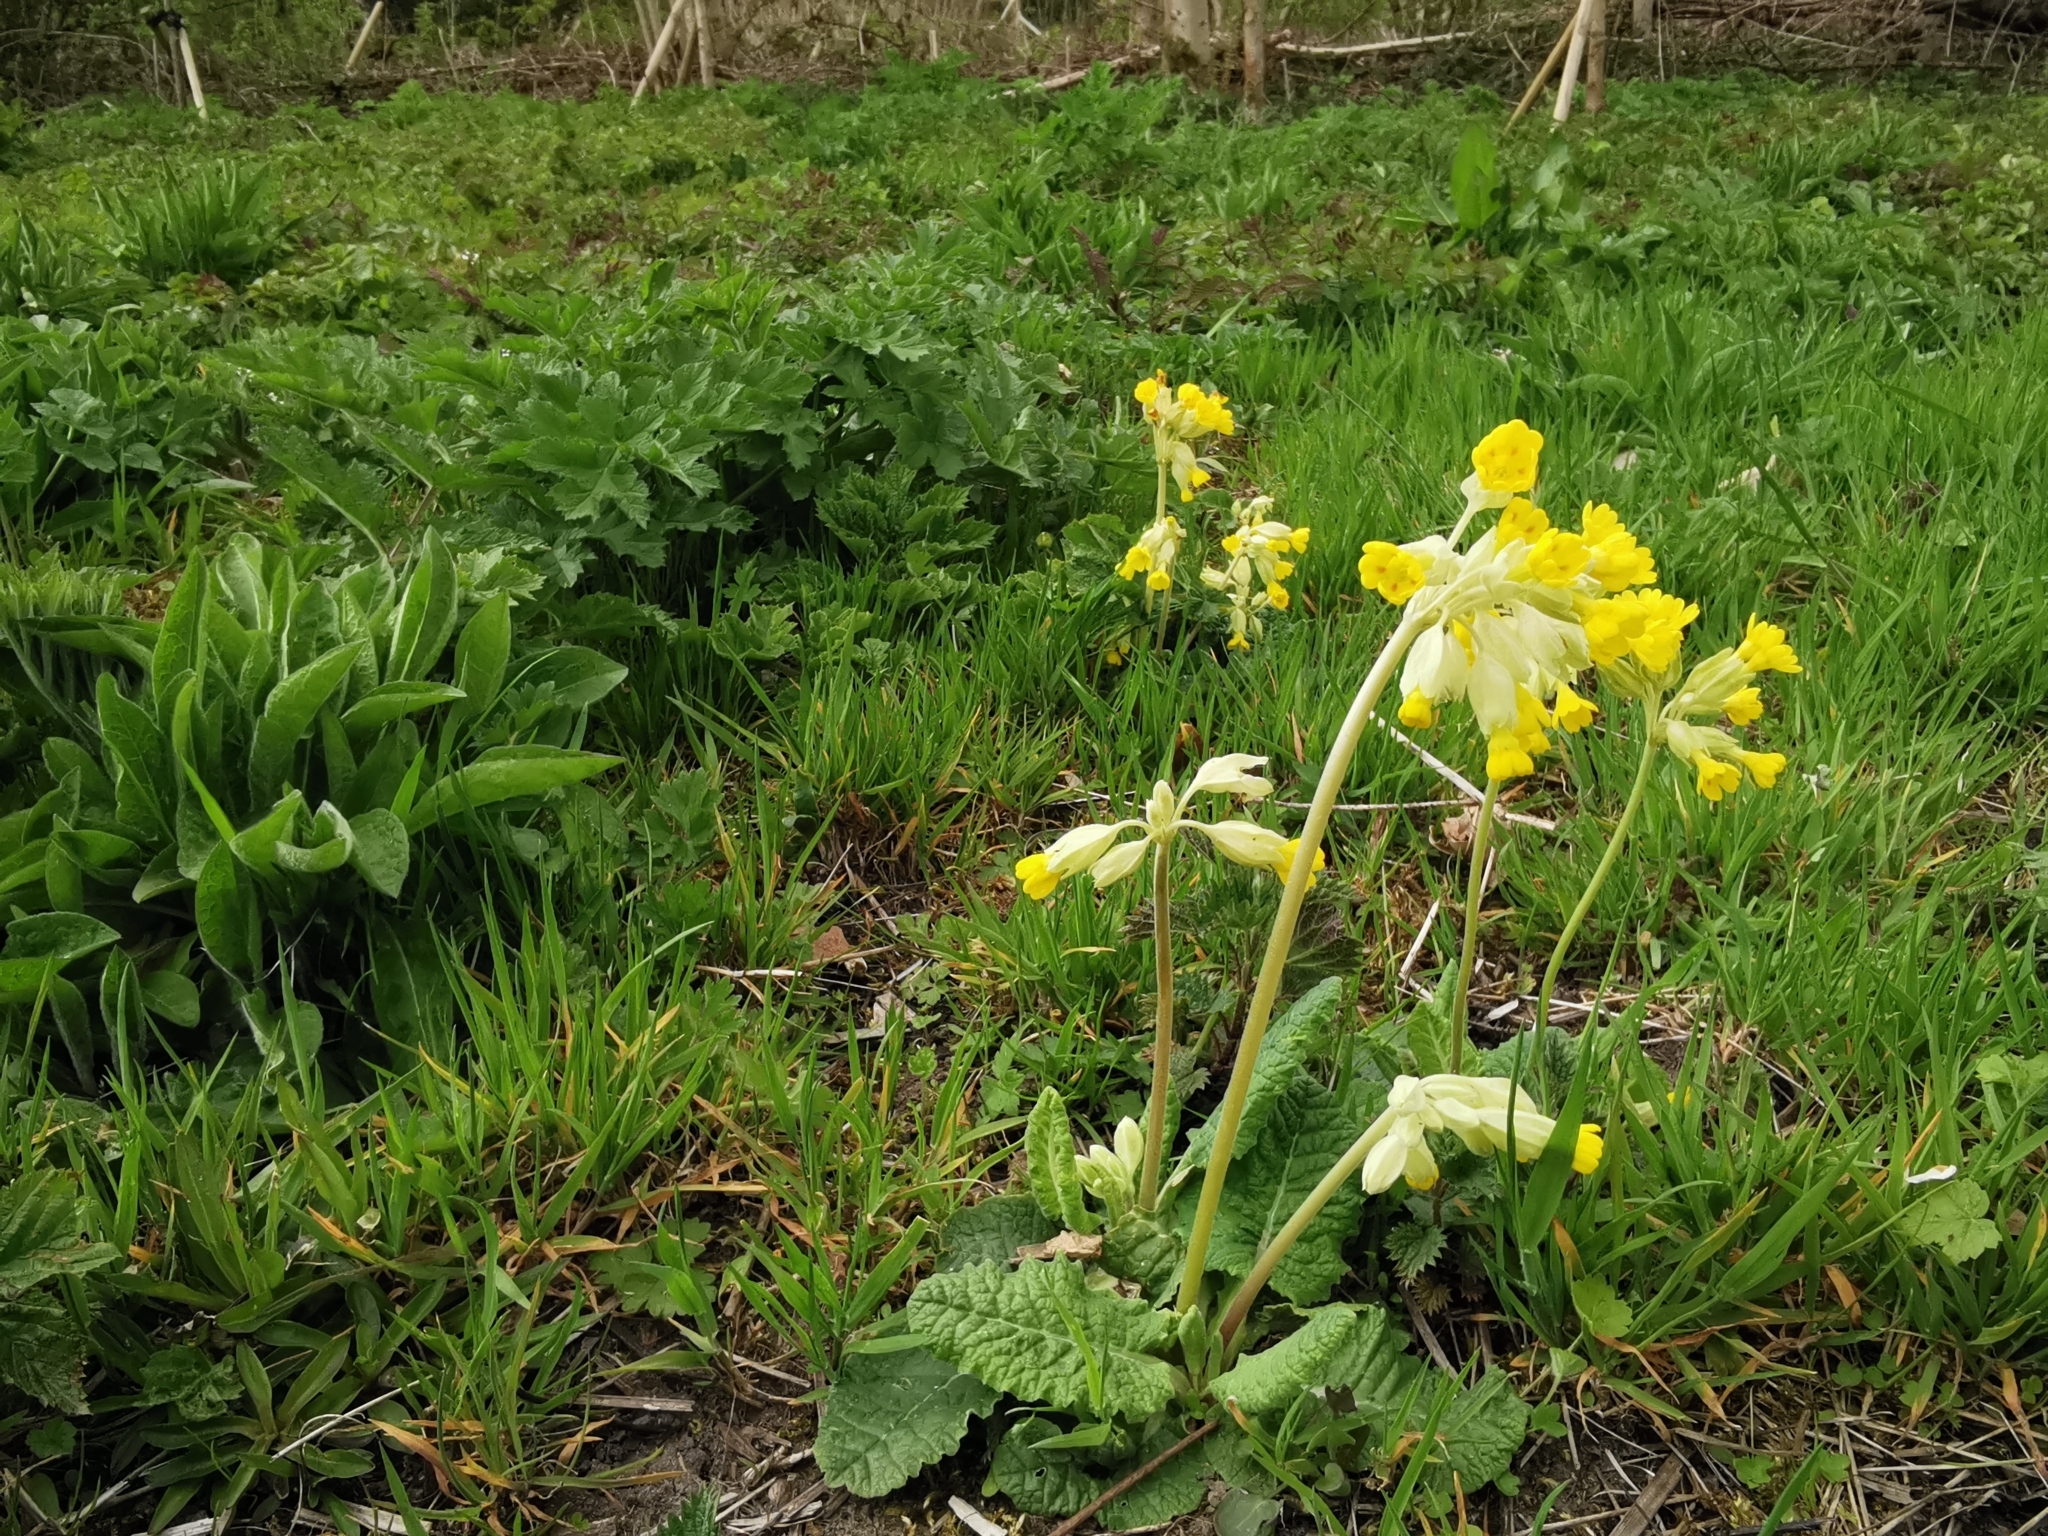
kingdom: Plantae
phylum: Tracheophyta
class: Magnoliopsida
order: Ericales
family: Primulaceae
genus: Primula
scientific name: Primula veris
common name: Cowslip
